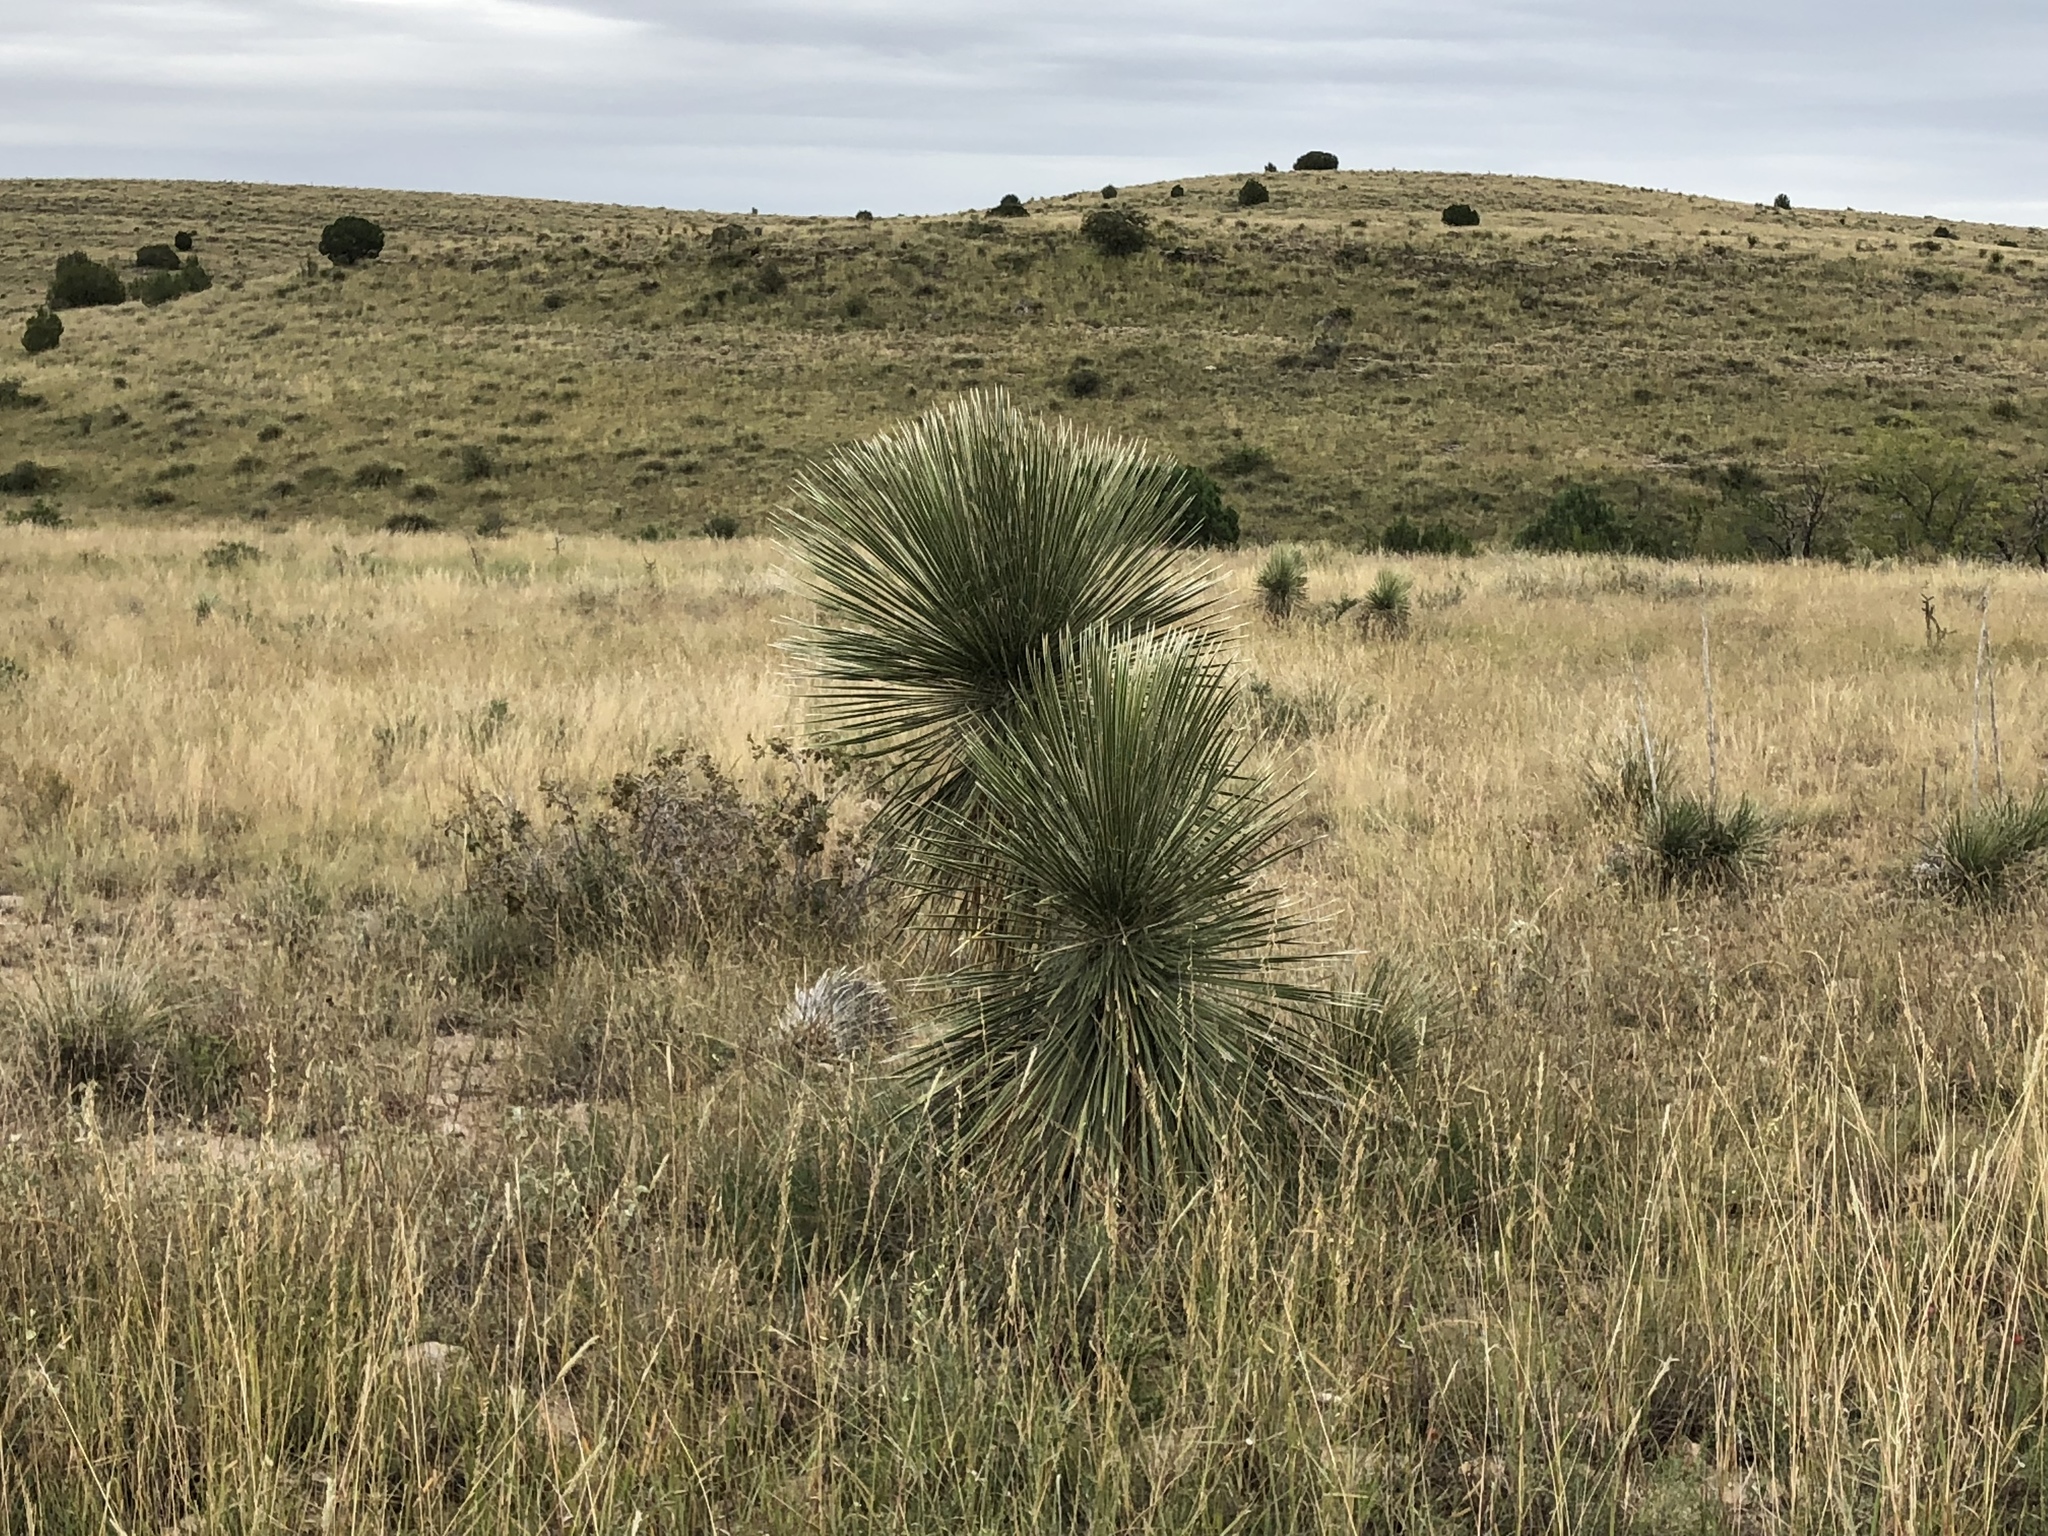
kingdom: Plantae
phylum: Tracheophyta
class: Liliopsida
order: Asparagales
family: Asparagaceae
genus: Yucca
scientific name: Yucca elata
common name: Palmella
